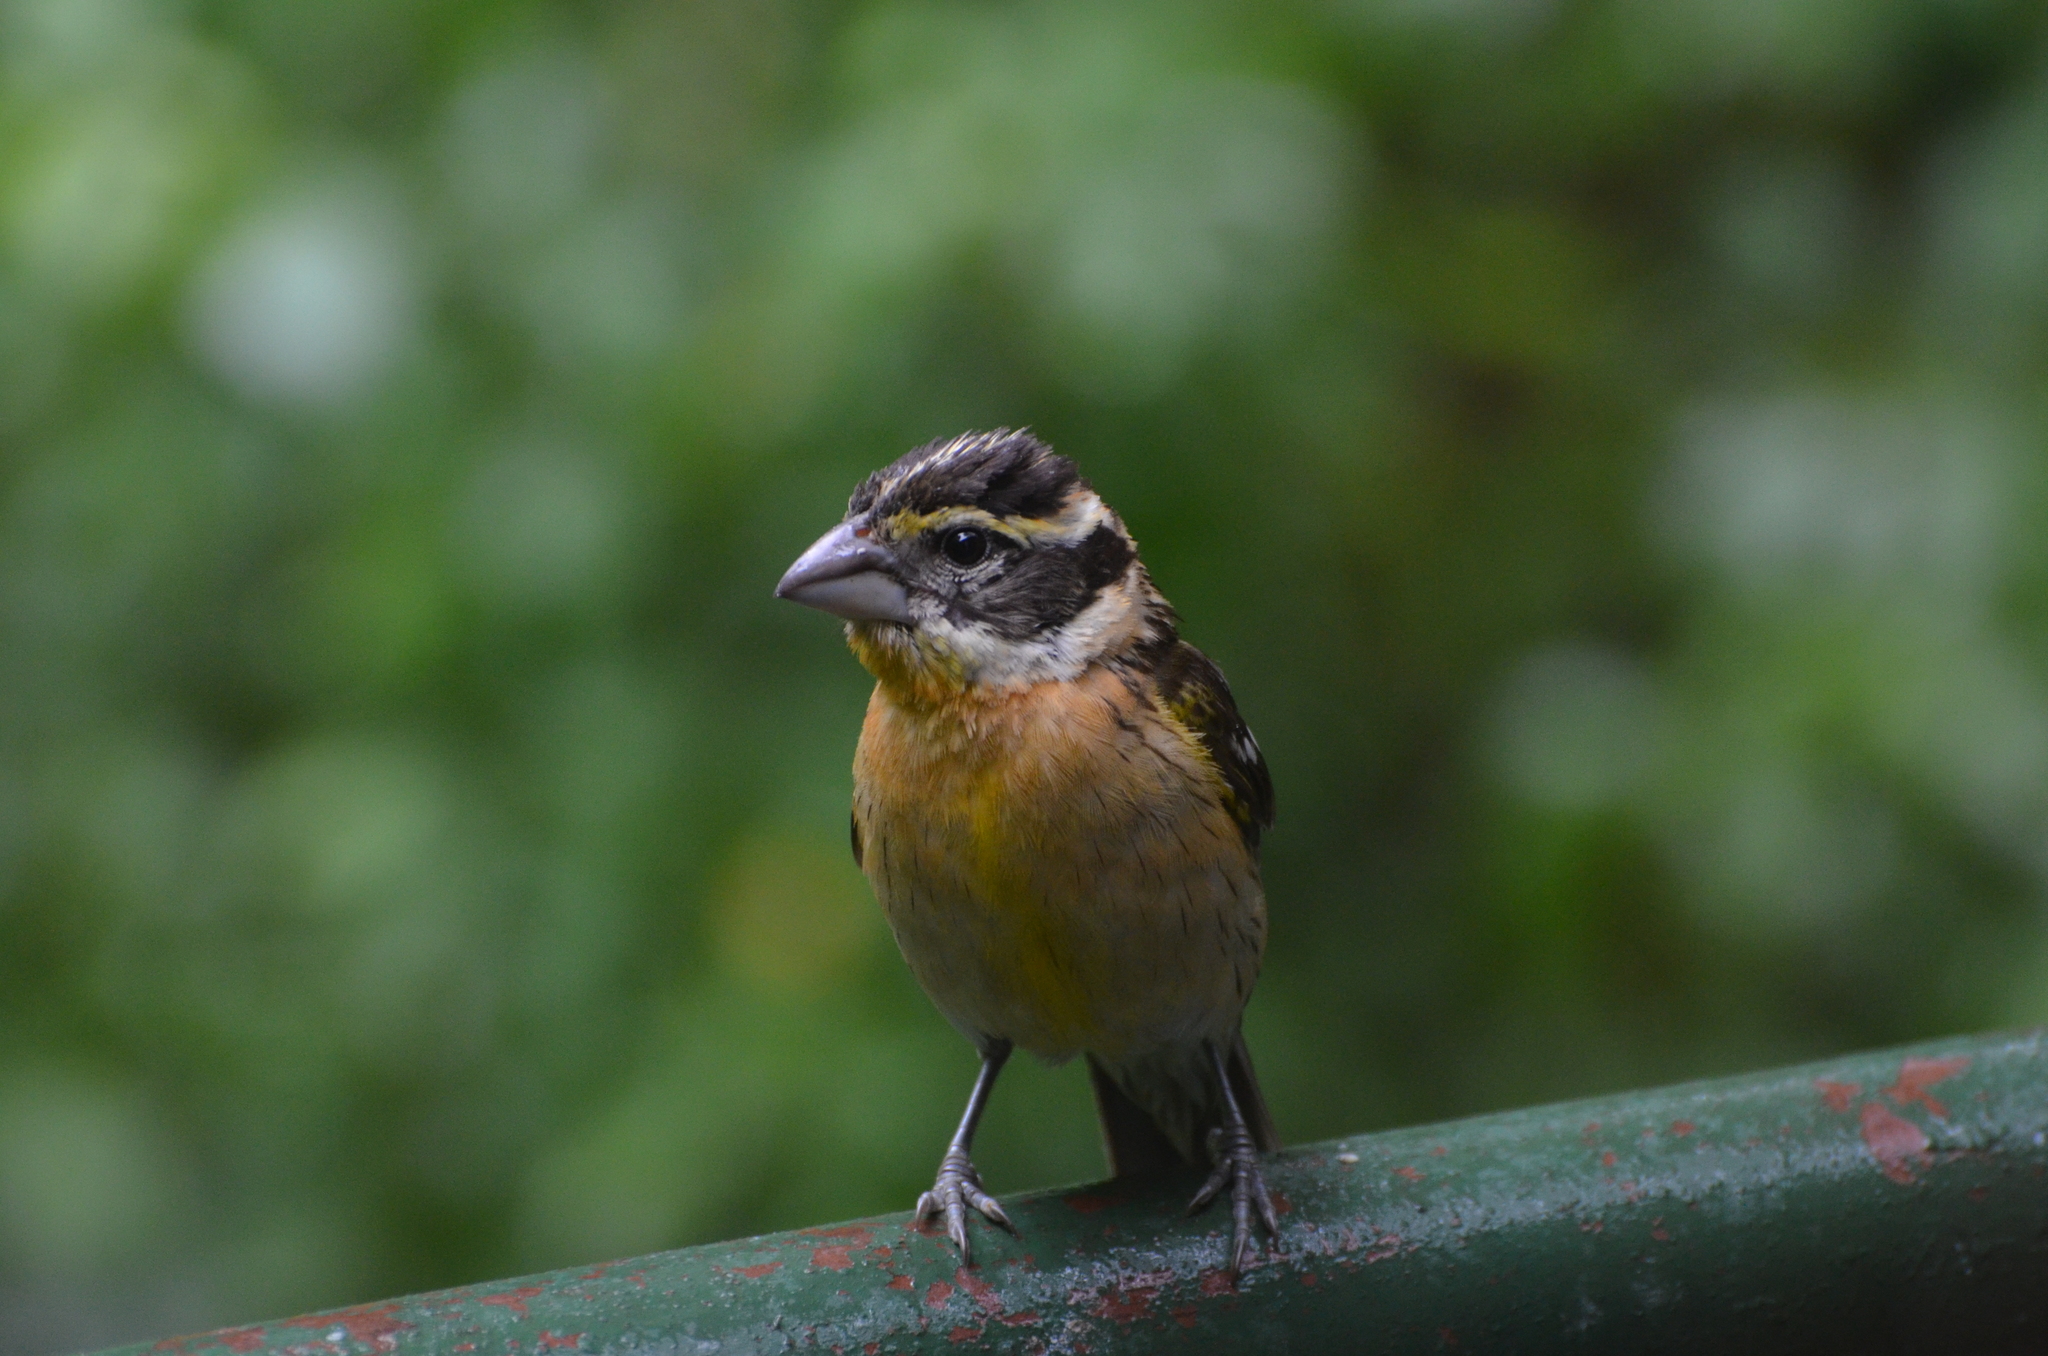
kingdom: Animalia
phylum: Chordata
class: Aves
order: Passeriformes
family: Cardinalidae
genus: Pheucticus
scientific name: Pheucticus melanocephalus
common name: Black-headed grosbeak
